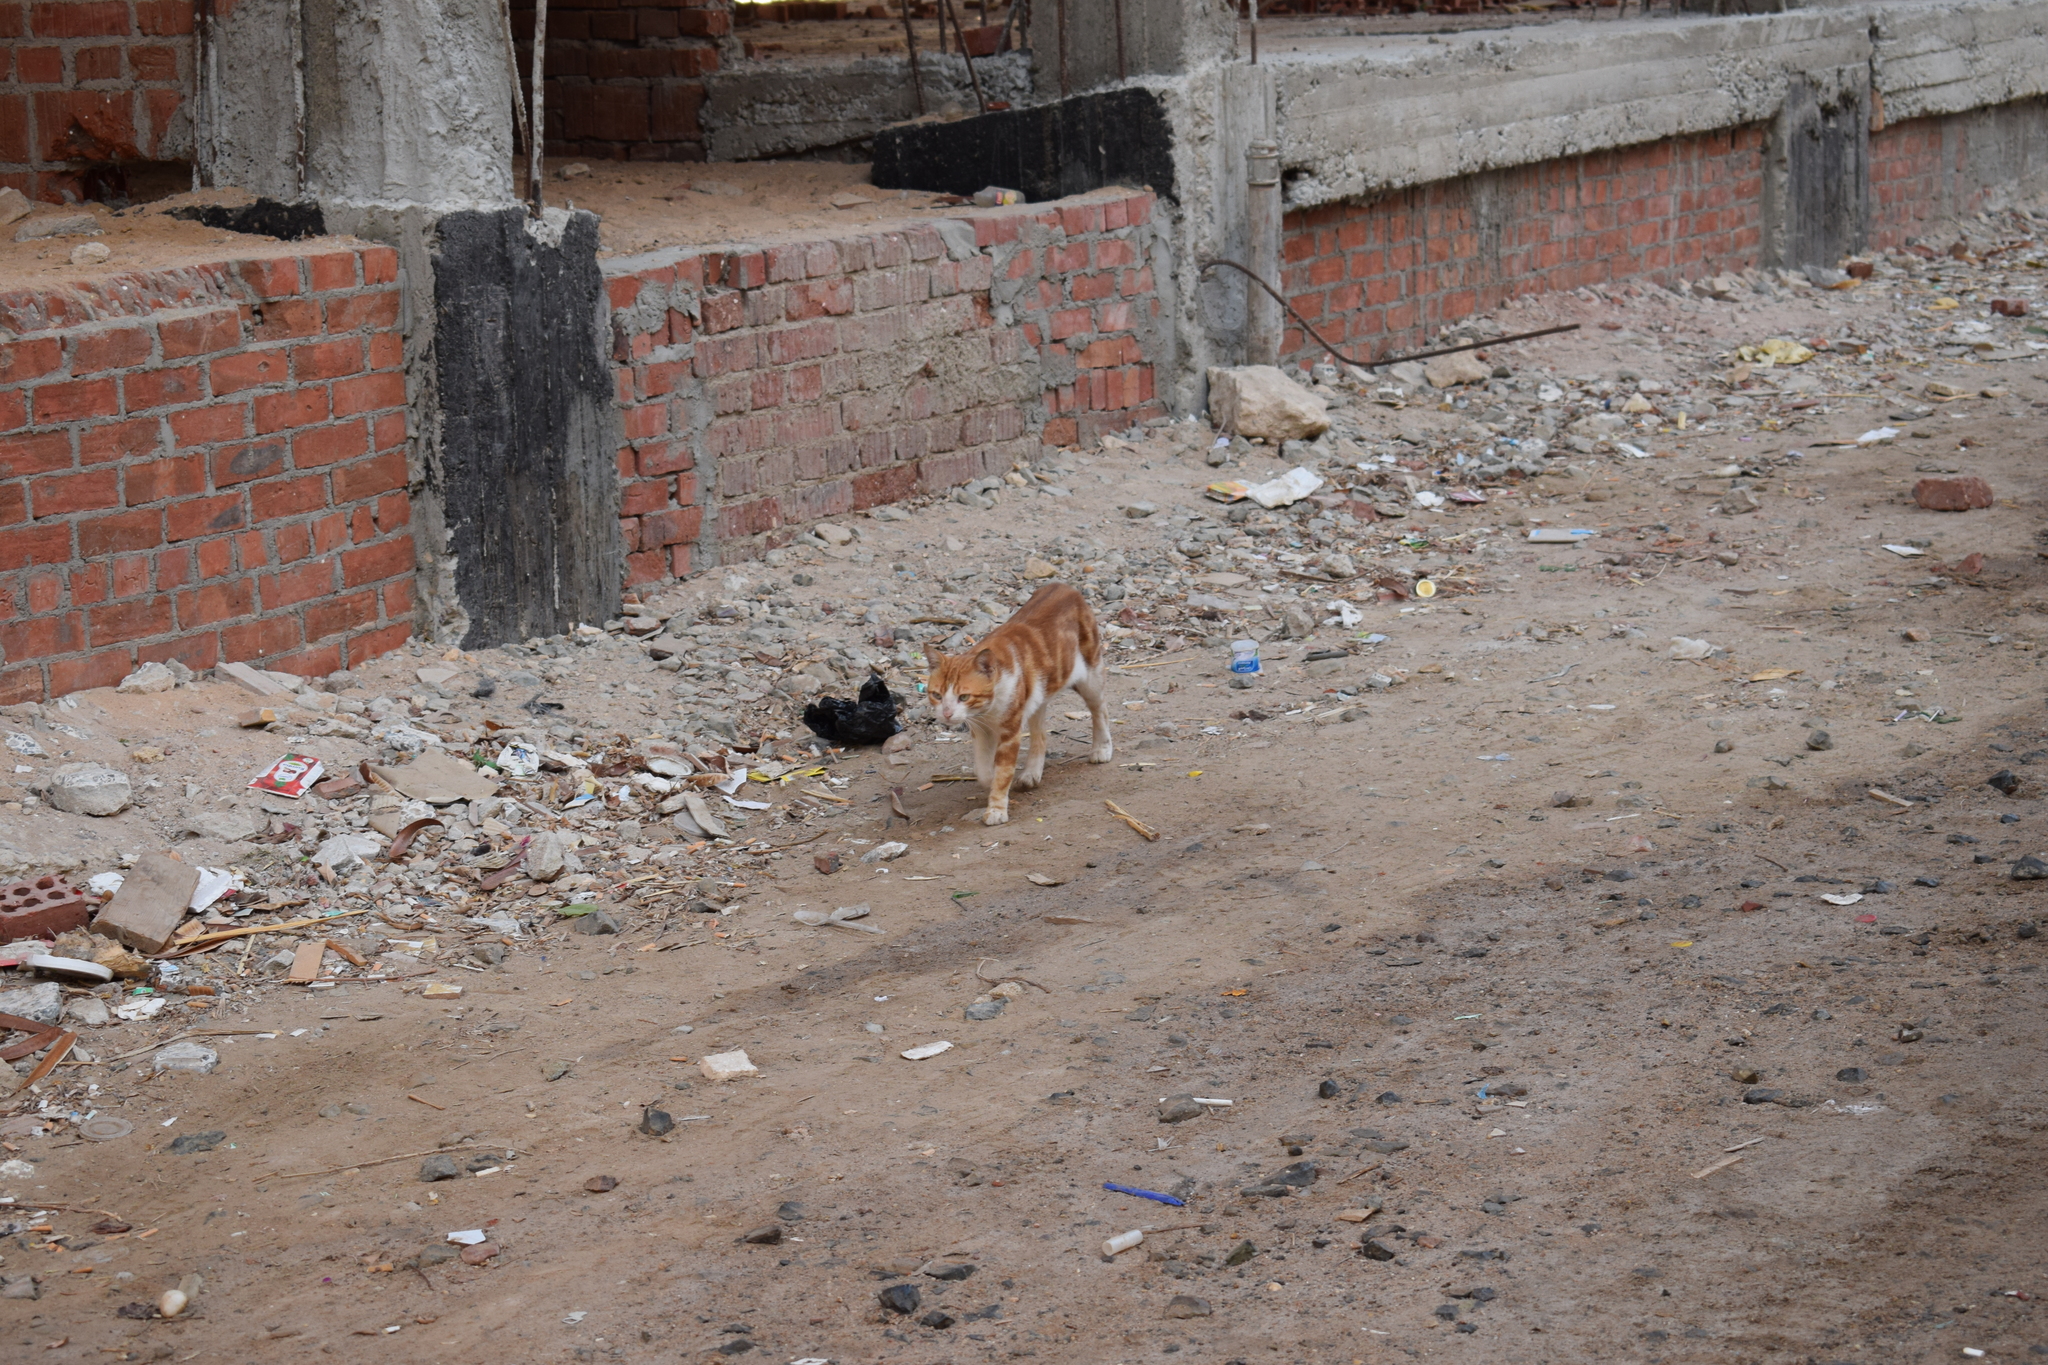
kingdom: Animalia
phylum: Chordata
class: Mammalia
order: Carnivora
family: Felidae
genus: Felis
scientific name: Felis catus
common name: Domestic cat
